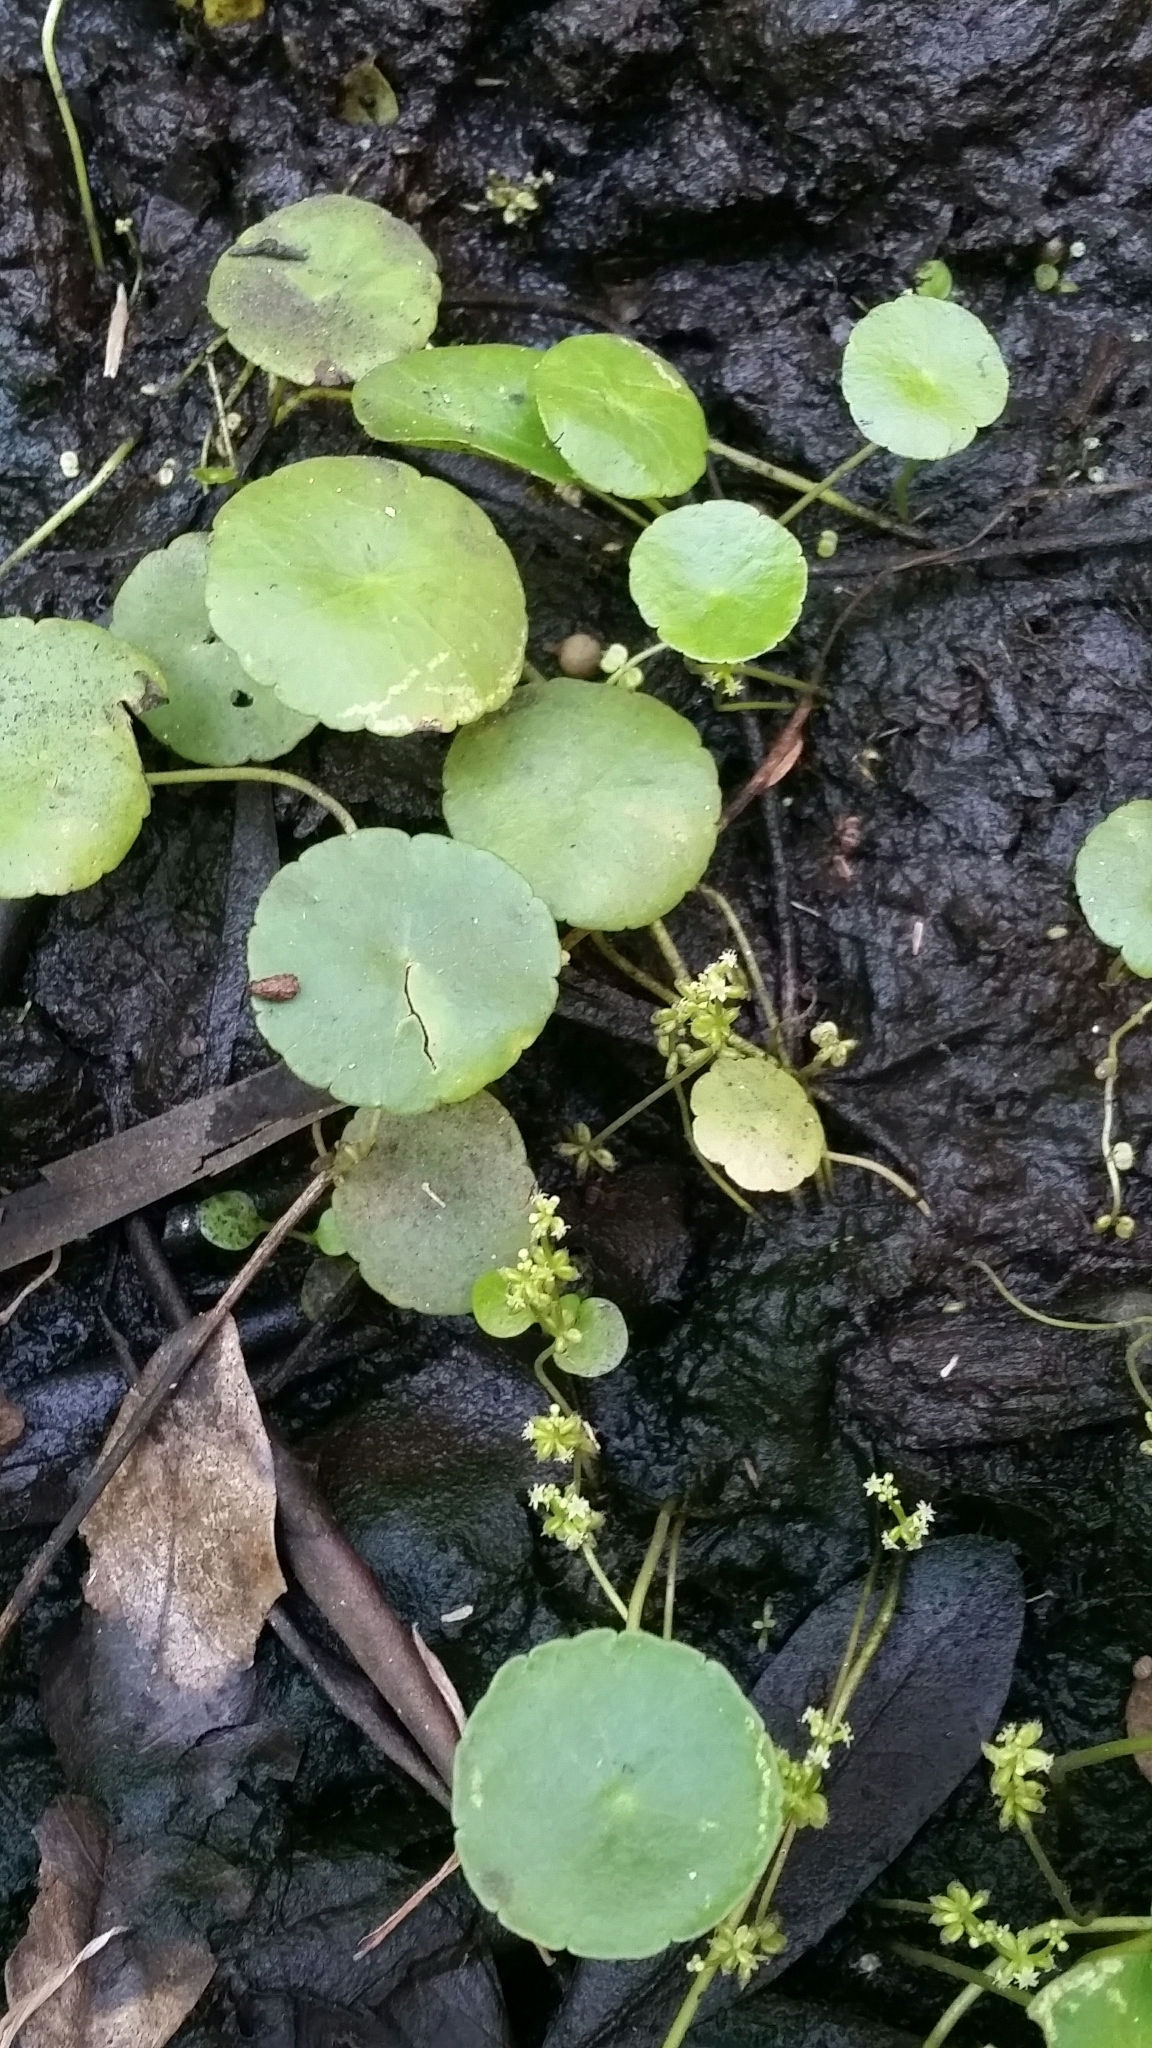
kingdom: Plantae
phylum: Tracheophyta
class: Magnoliopsida
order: Apiales
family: Araliaceae
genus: Hydrocotyle
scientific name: Hydrocotyle verticillata
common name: Whorled marshpennywort
